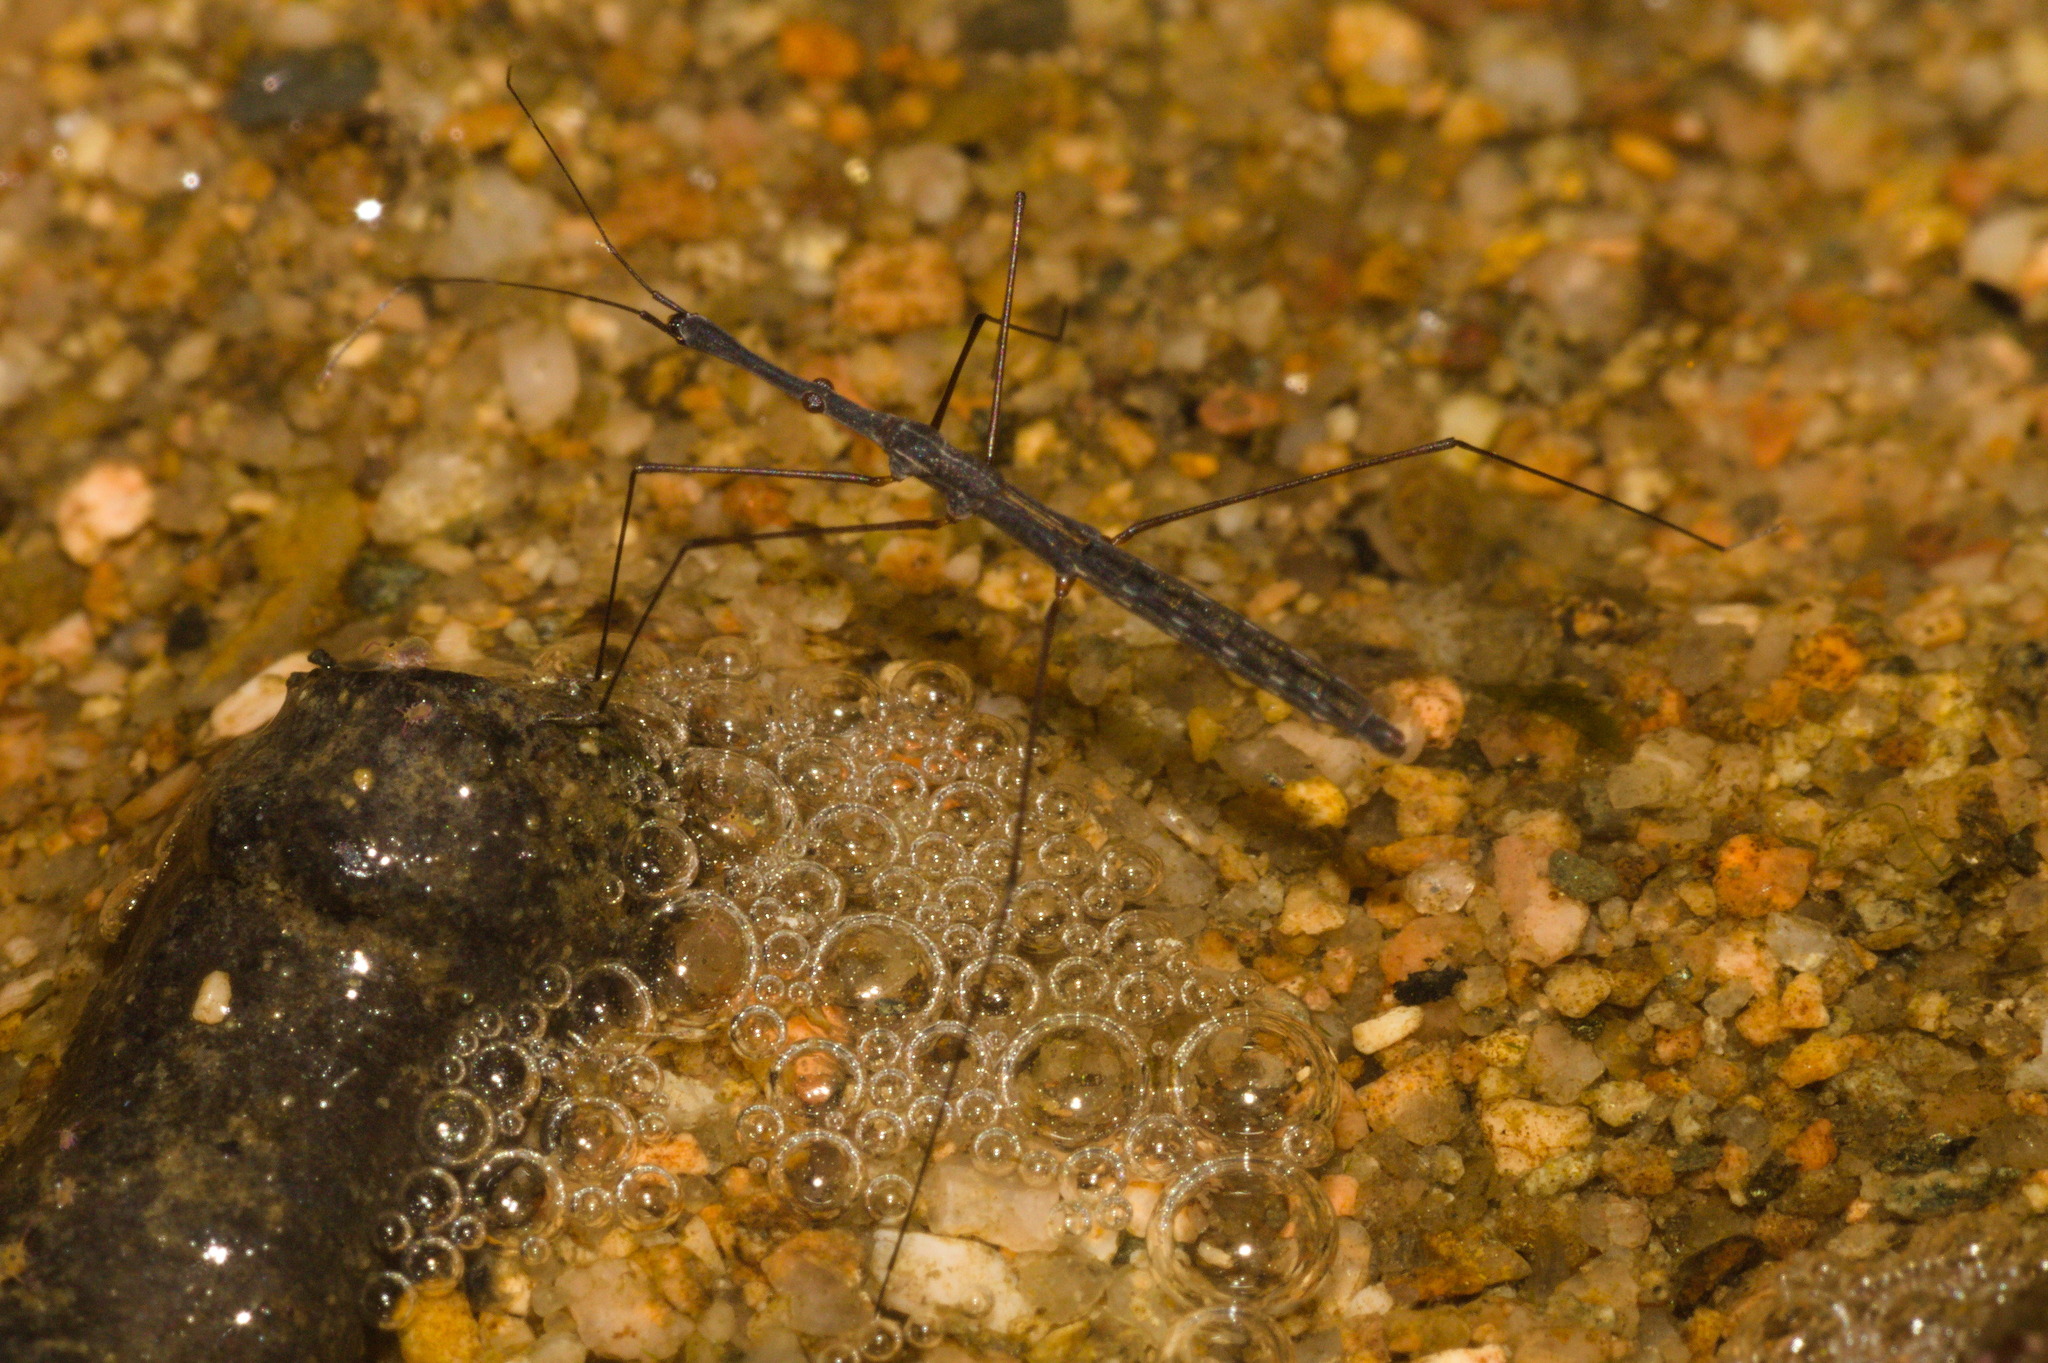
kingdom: Animalia
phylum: Arthropoda
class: Insecta
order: Hemiptera
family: Hydrometridae
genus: Hydrometra
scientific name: Hydrometra stagnorum
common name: Water measurer
